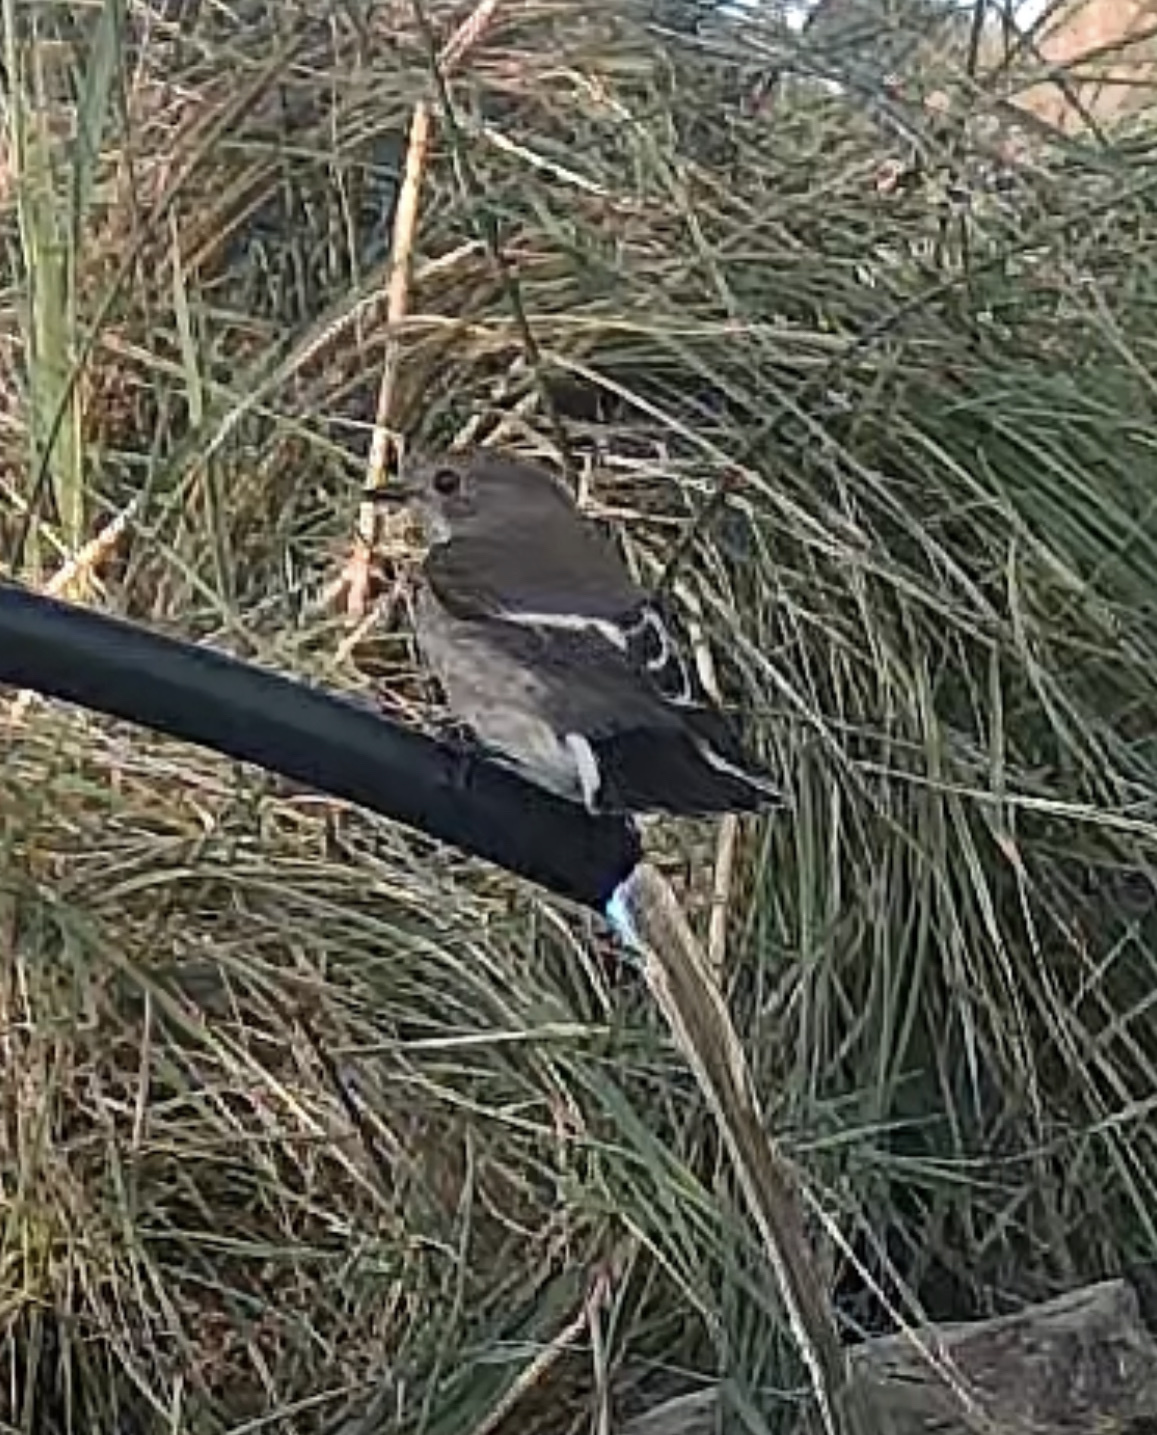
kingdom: Animalia
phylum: Chordata
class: Aves
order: Passeriformes
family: Muscicapidae
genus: Ficedula
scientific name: Ficedula hypoleuca
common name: European pied flycatcher
